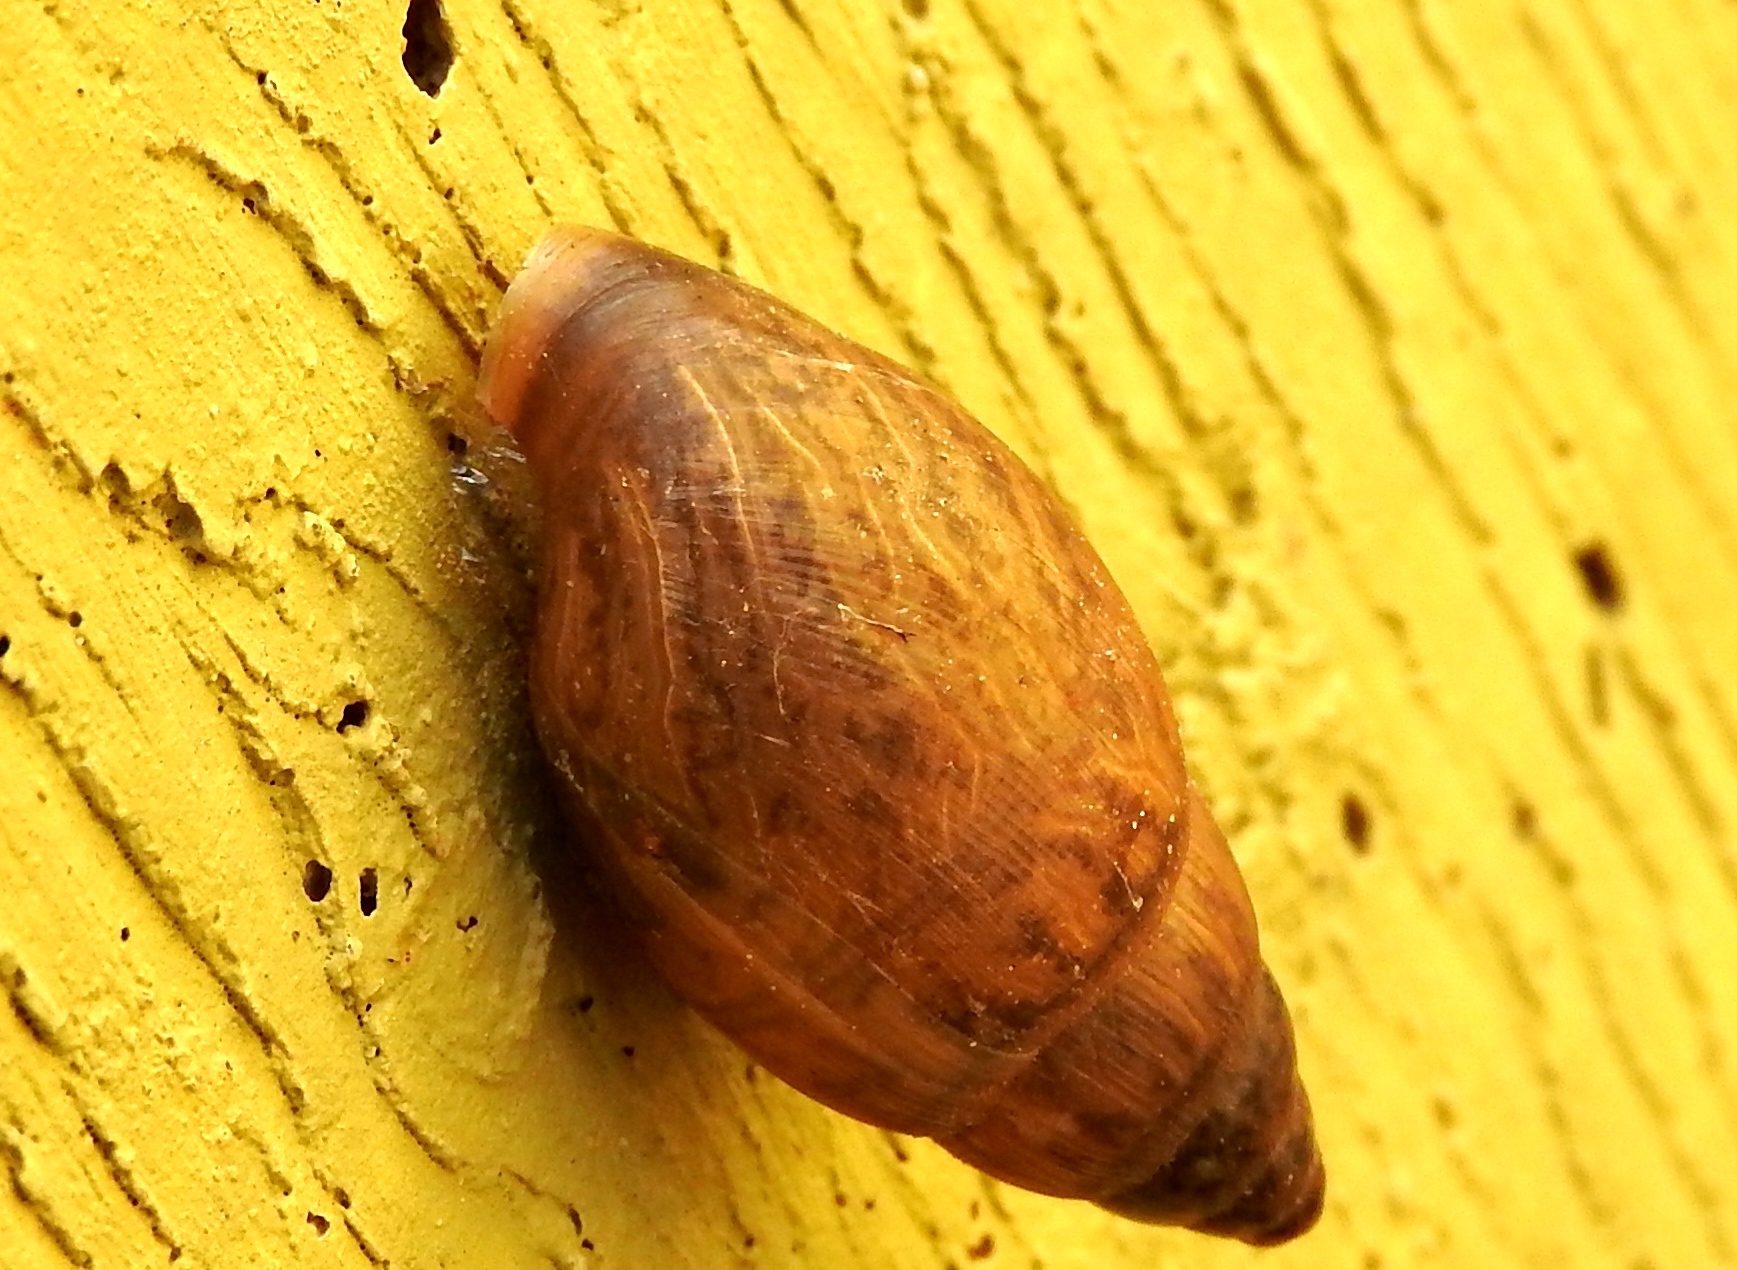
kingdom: Animalia
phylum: Mollusca
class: Gastropoda
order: Stylommatophora
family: Bulimulidae
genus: Bulimulus
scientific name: Bulimulus
